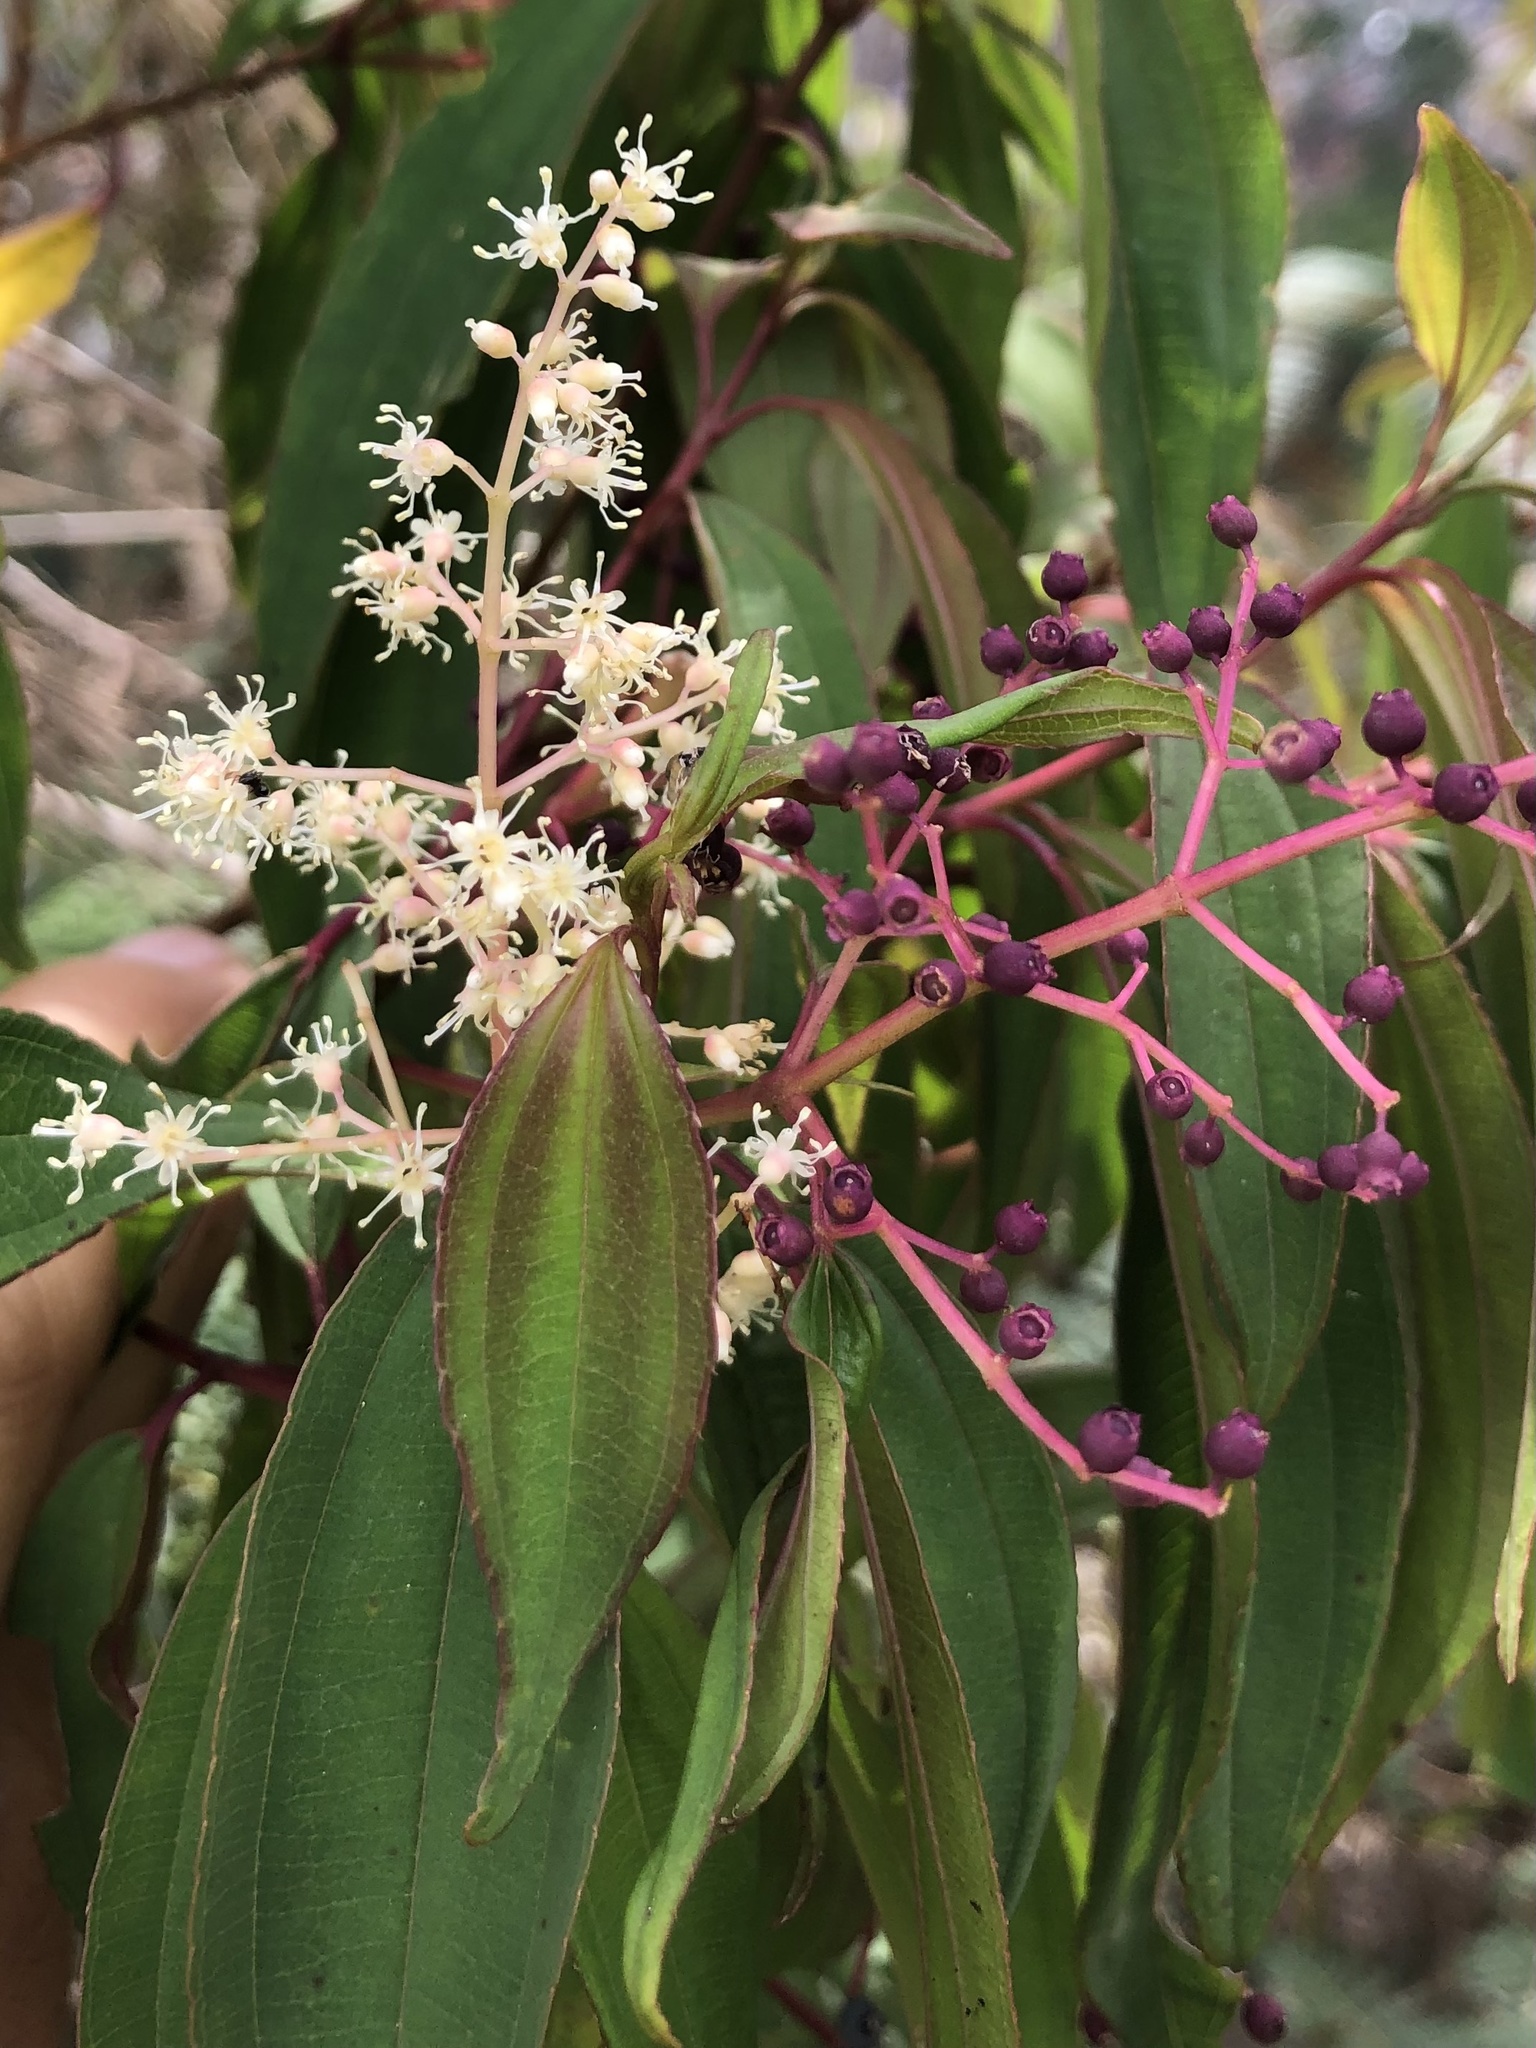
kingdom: Plantae
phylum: Tracheophyta
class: Magnoliopsida
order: Myrtales
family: Melastomataceae
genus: Miconia
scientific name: Miconia theizans
